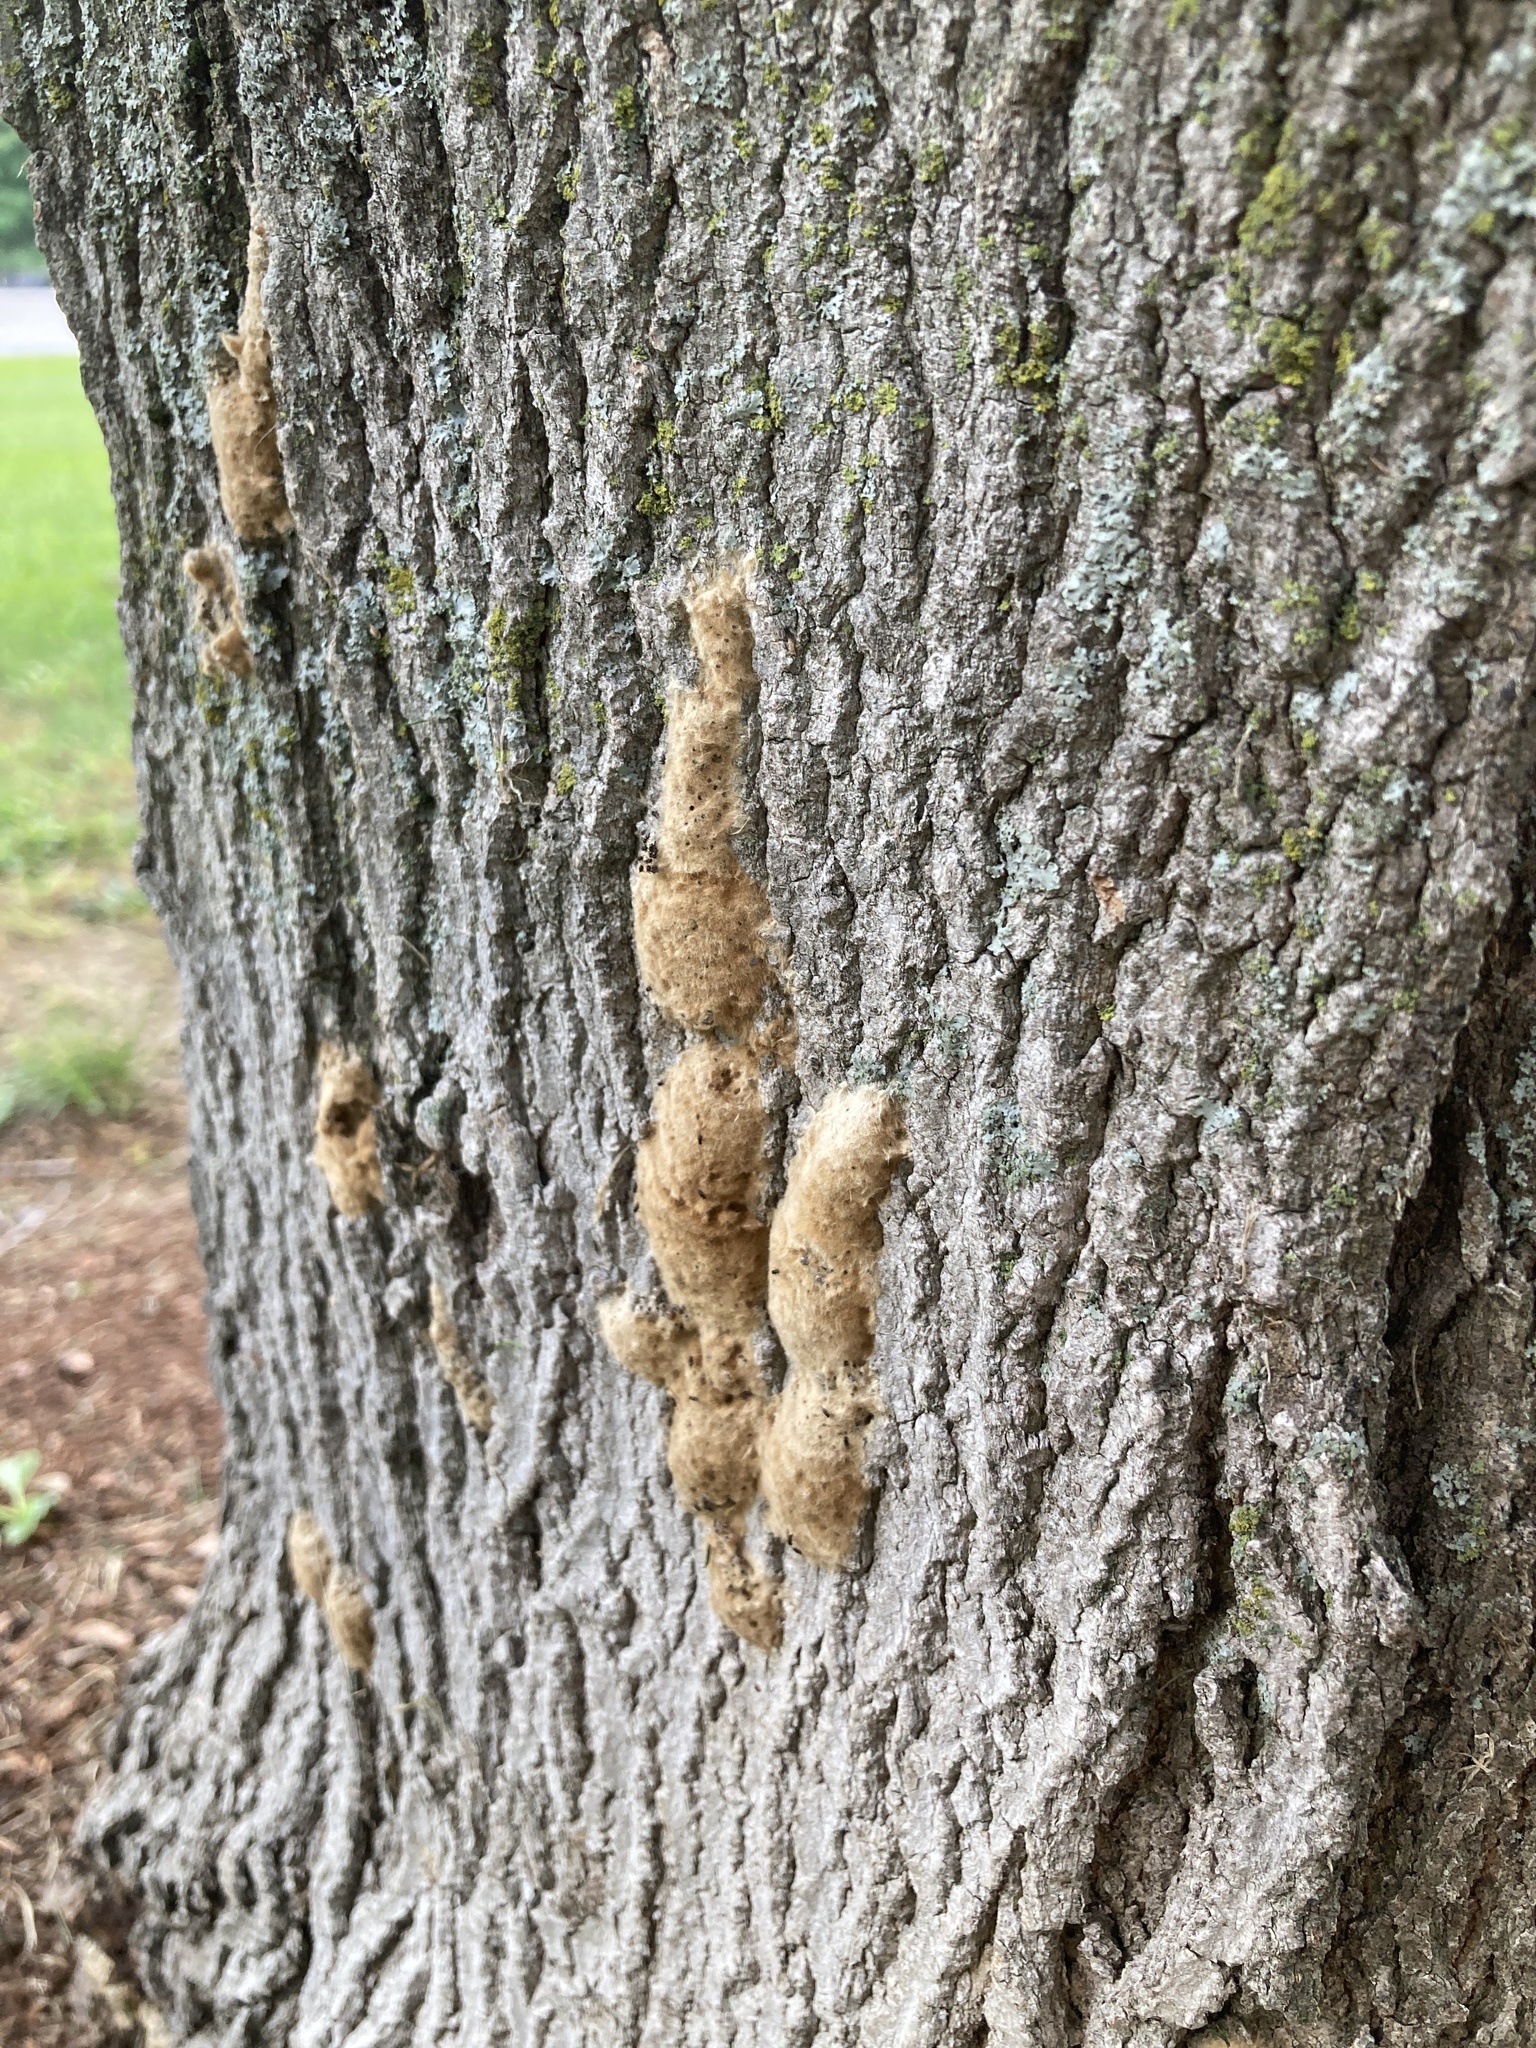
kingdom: Animalia
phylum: Arthropoda
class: Insecta
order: Lepidoptera
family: Erebidae
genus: Lymantria
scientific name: Lymantria dispar
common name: Gypsy moth
